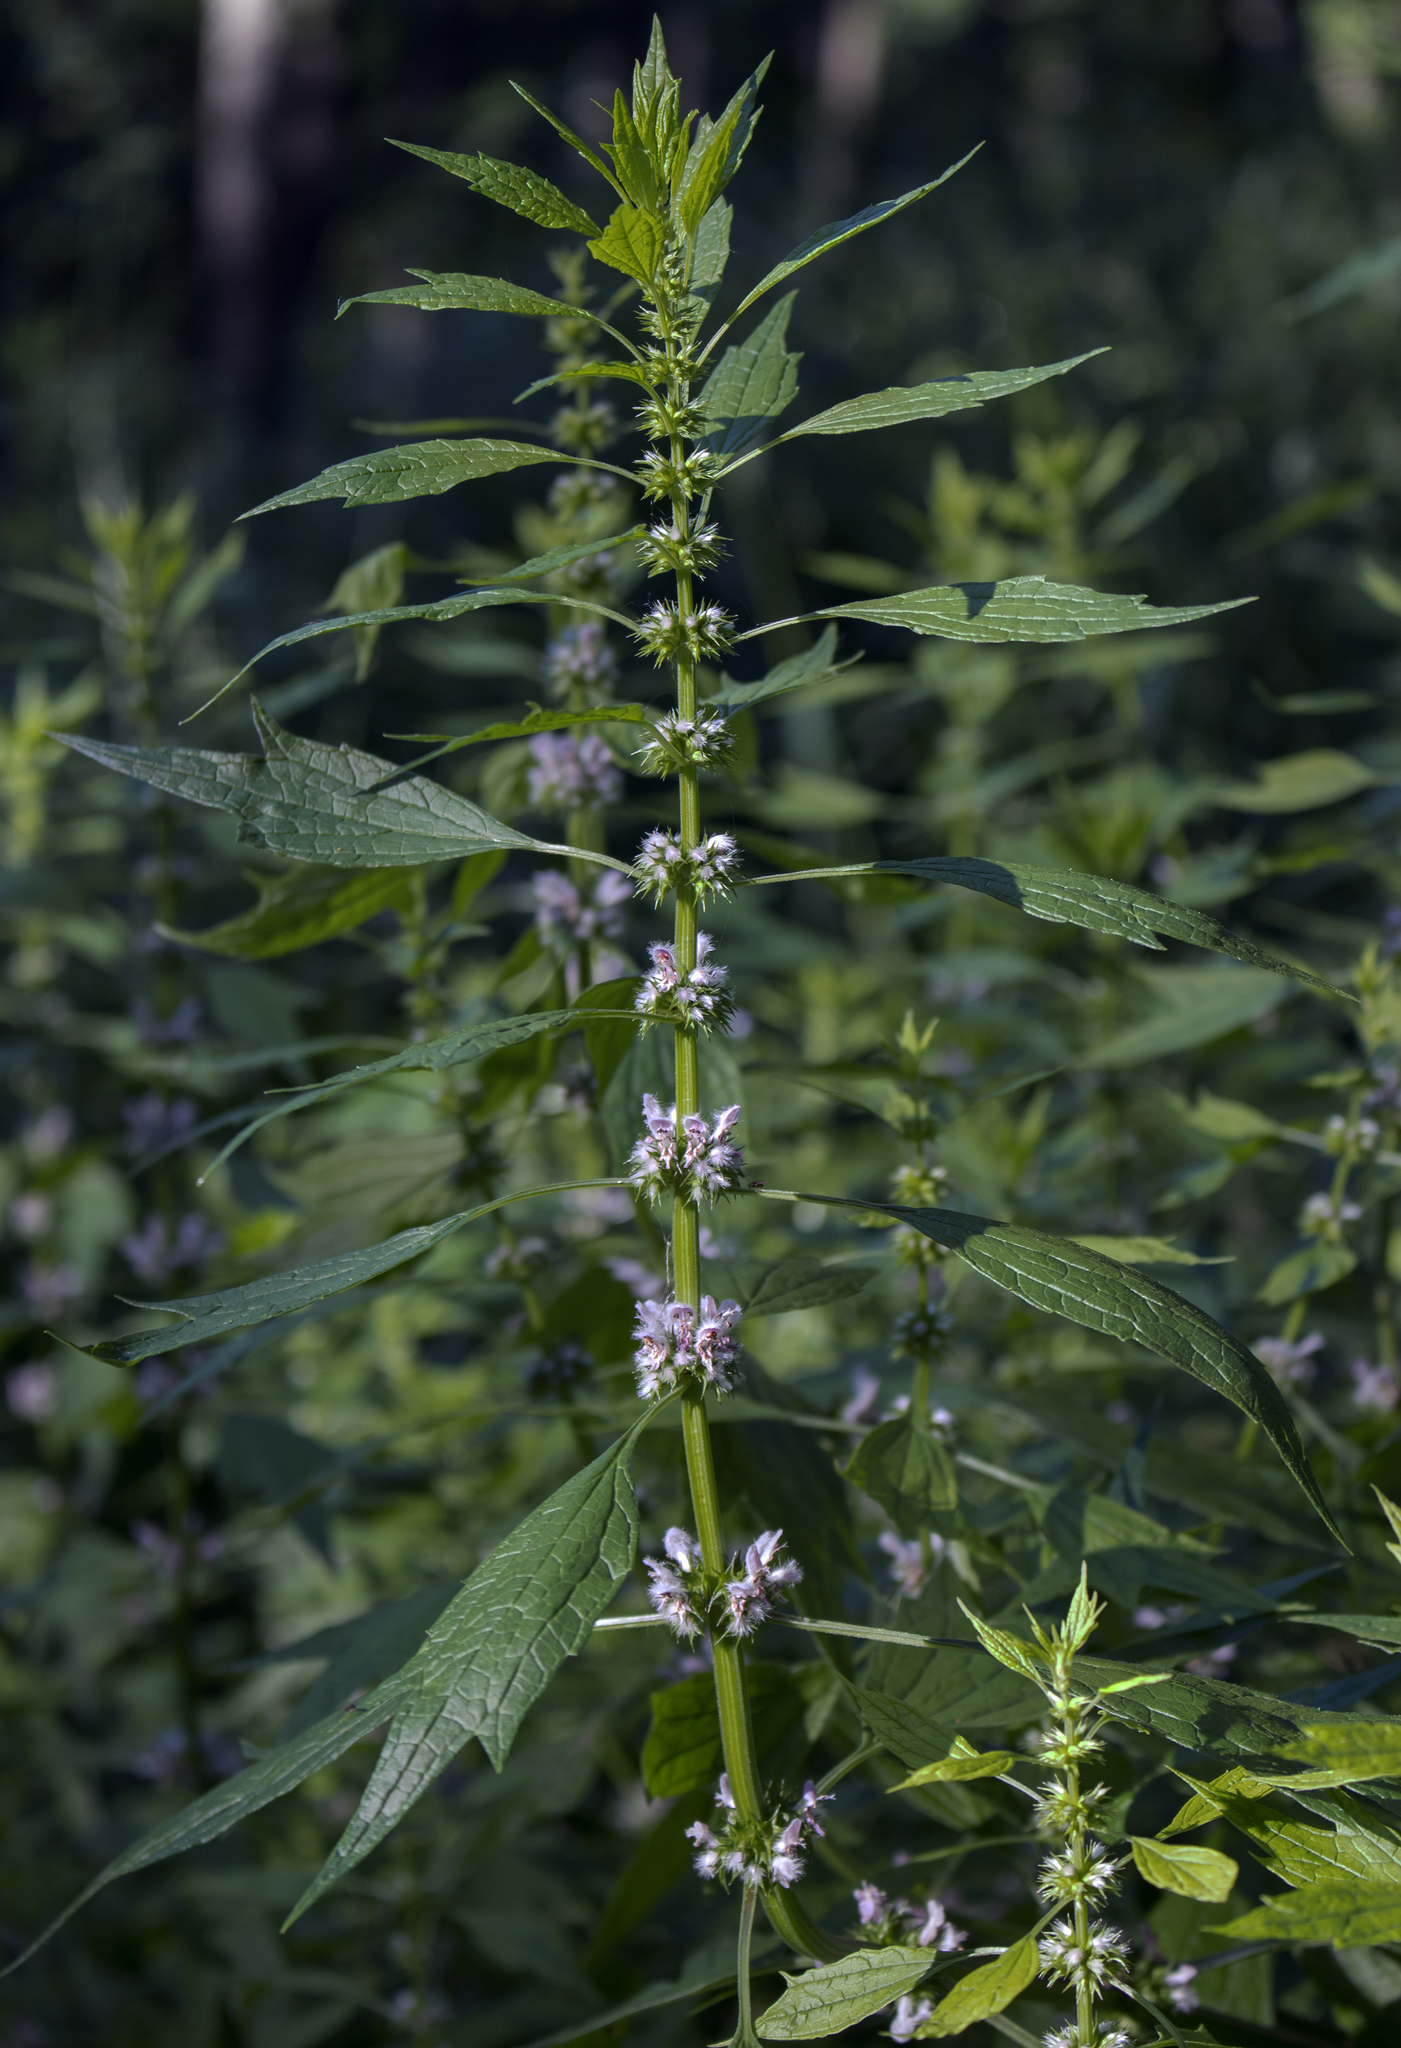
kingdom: Plantae
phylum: Tracheophyta
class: Magnoliopsida
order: Lamiales
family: Lamiaceae
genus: Leonurus
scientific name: Leonurus cardiaca
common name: Motherwort
